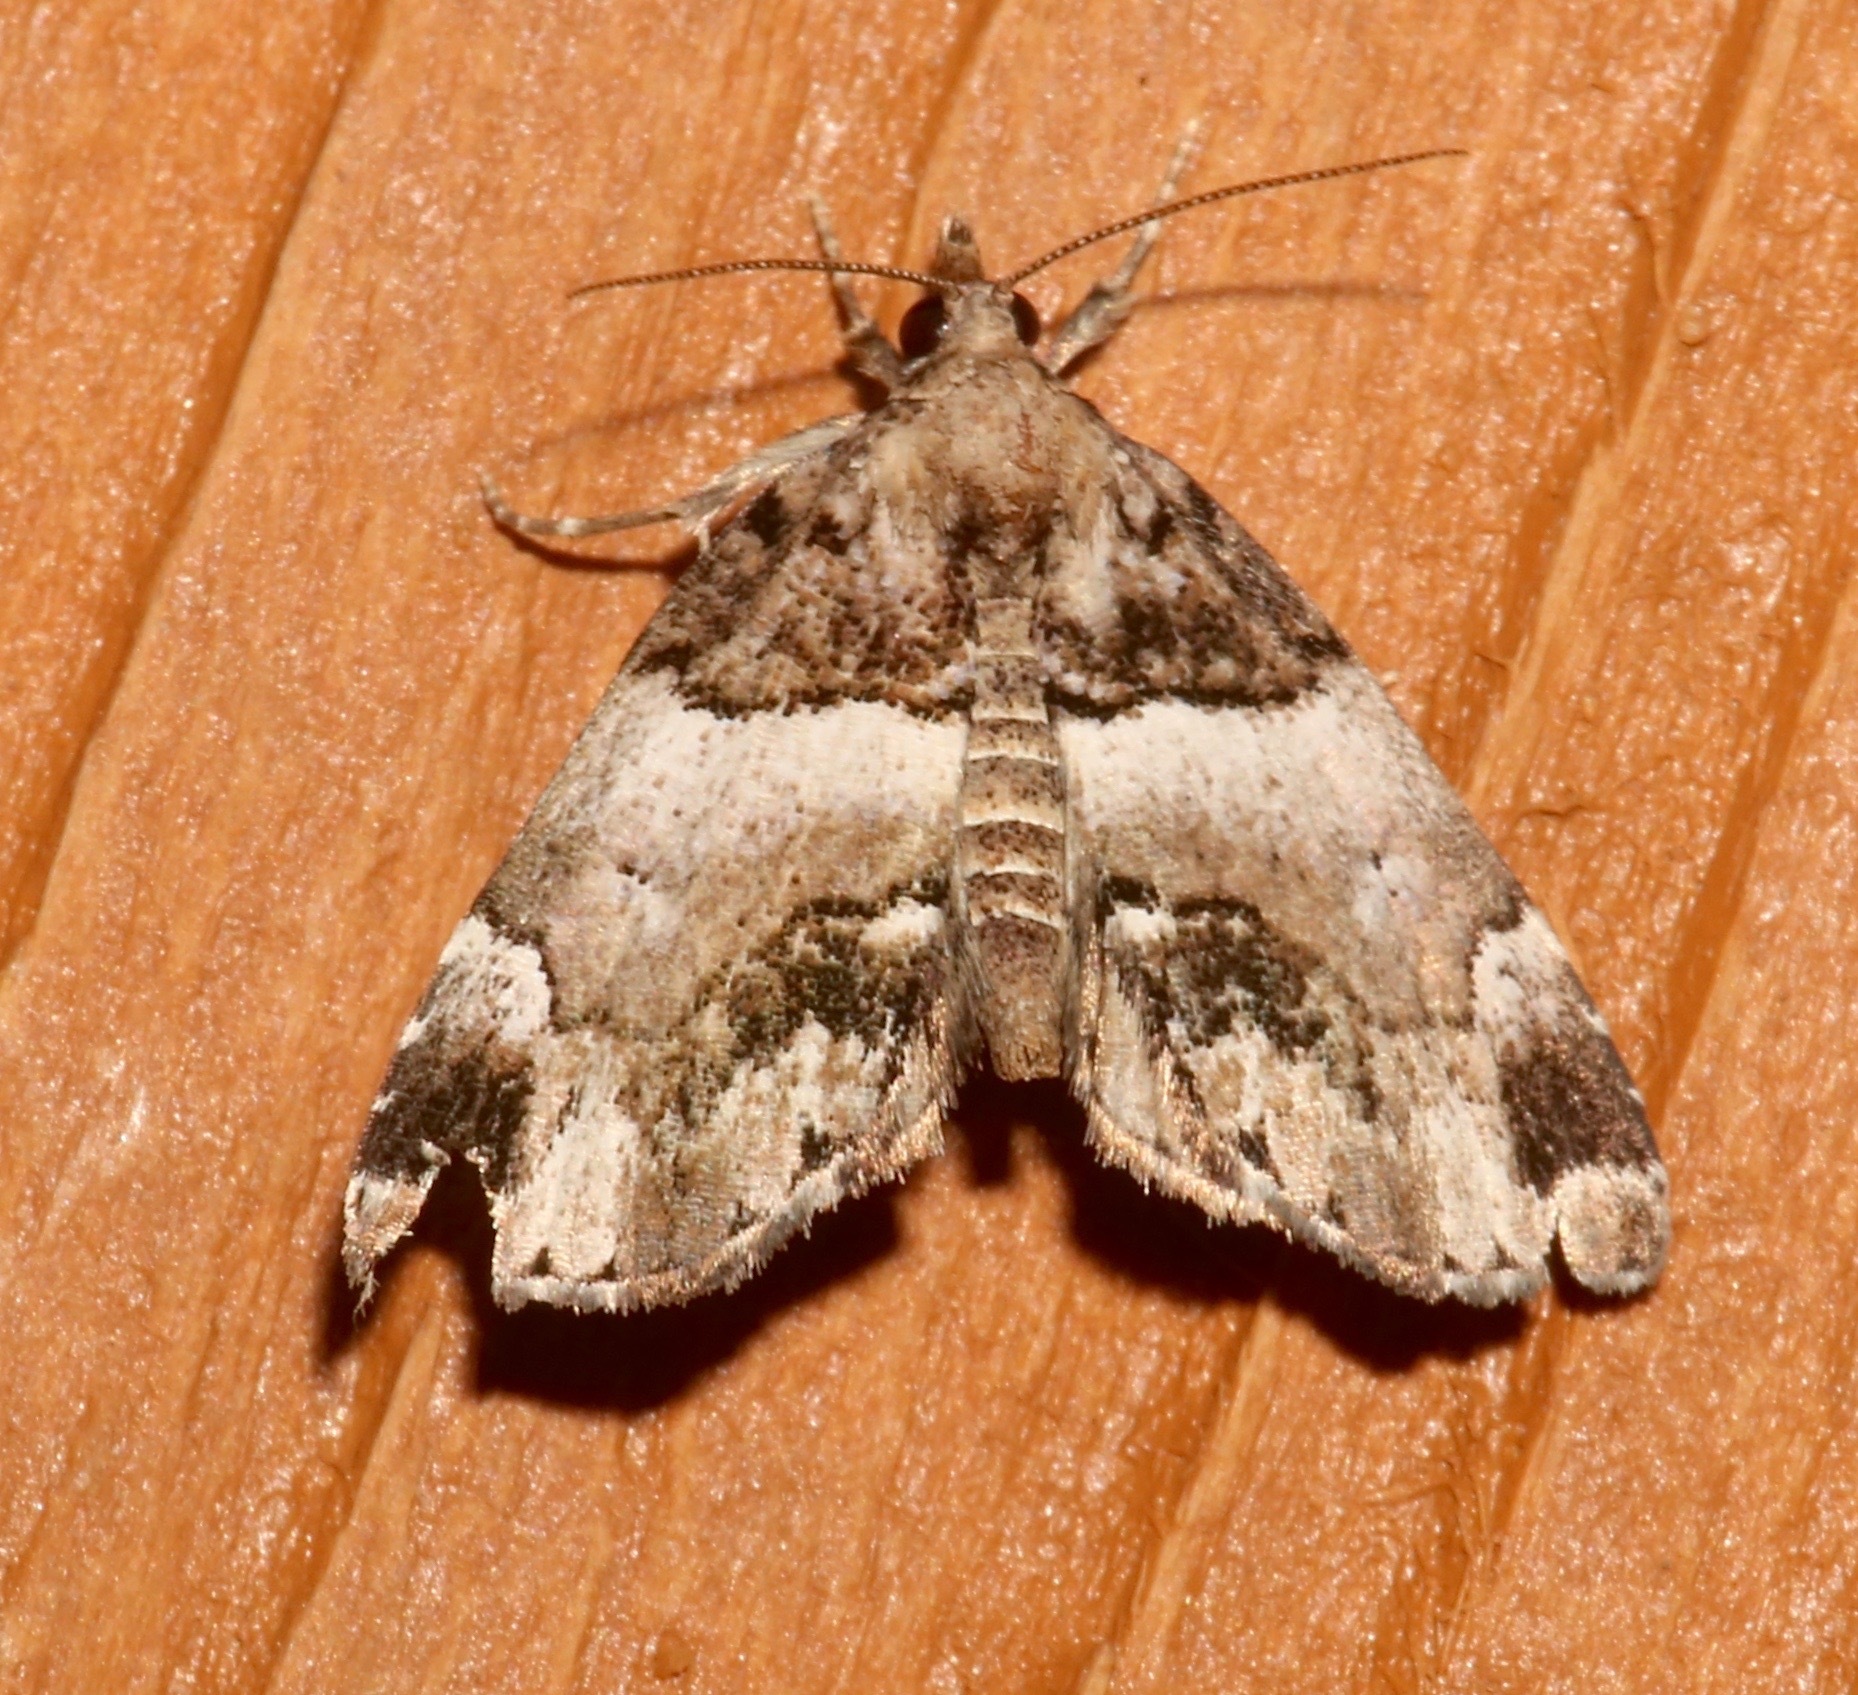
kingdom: Animalia
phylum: Arthropoda
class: Insecta
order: Lepidoptera
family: Erebidae
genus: Cutina
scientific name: Cutina distincta
